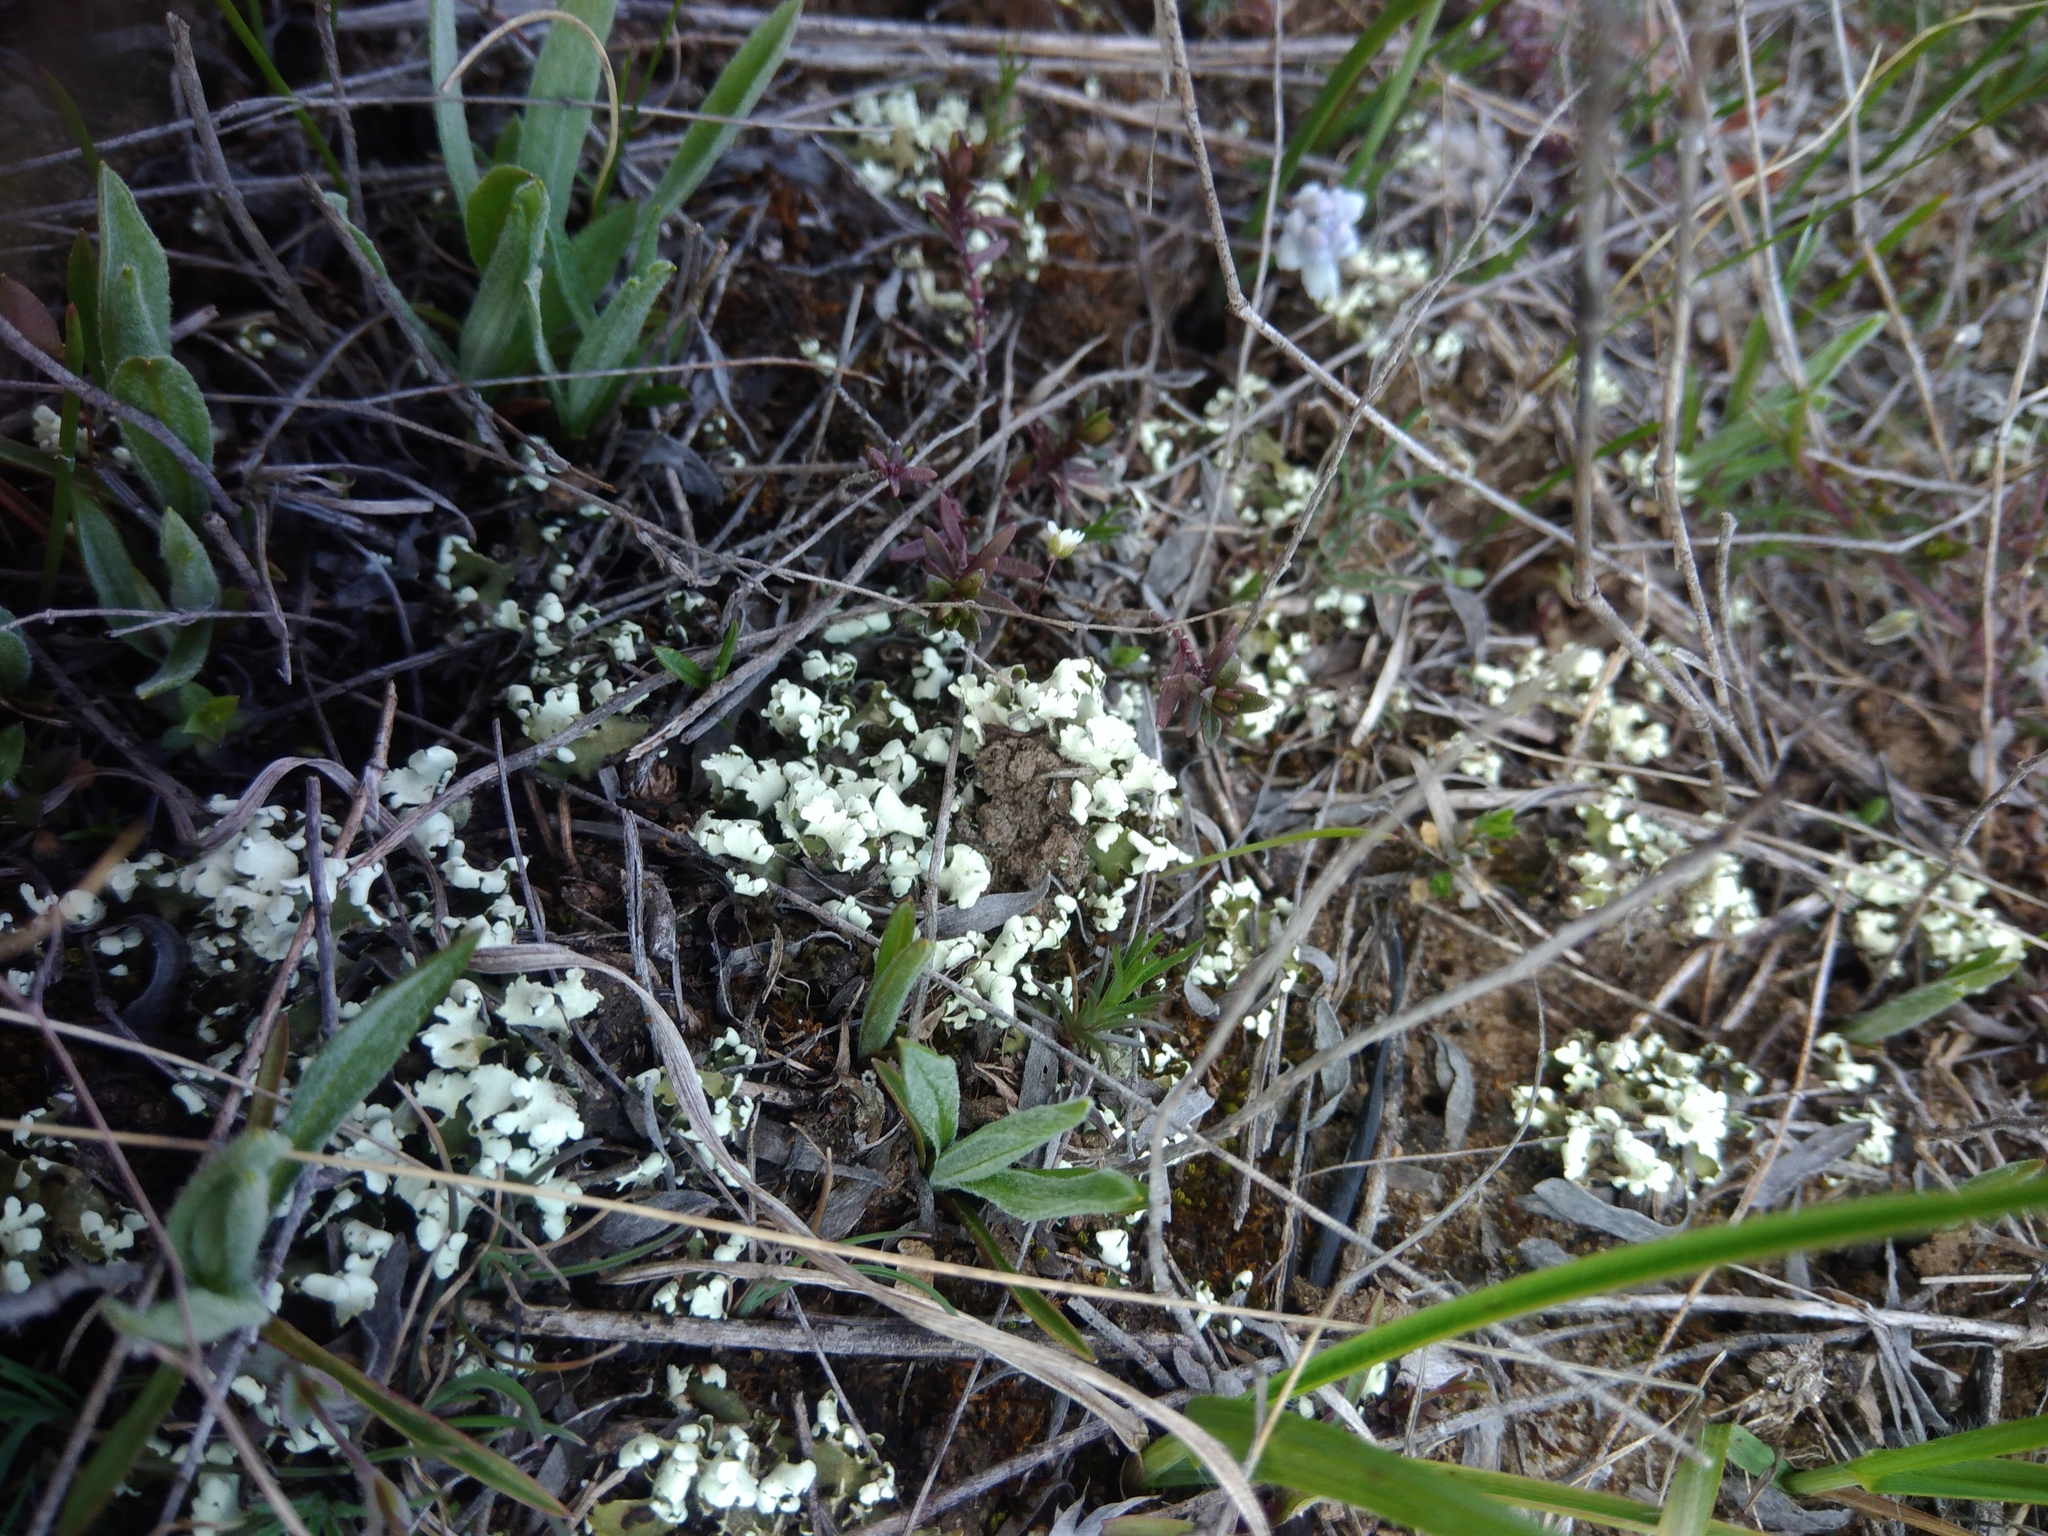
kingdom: Fungi
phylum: Ascomycota
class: Lecanoromycetes
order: Lecanorales
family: Cladoniaceae
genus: Cladonia
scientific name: Cladonia foliacea
